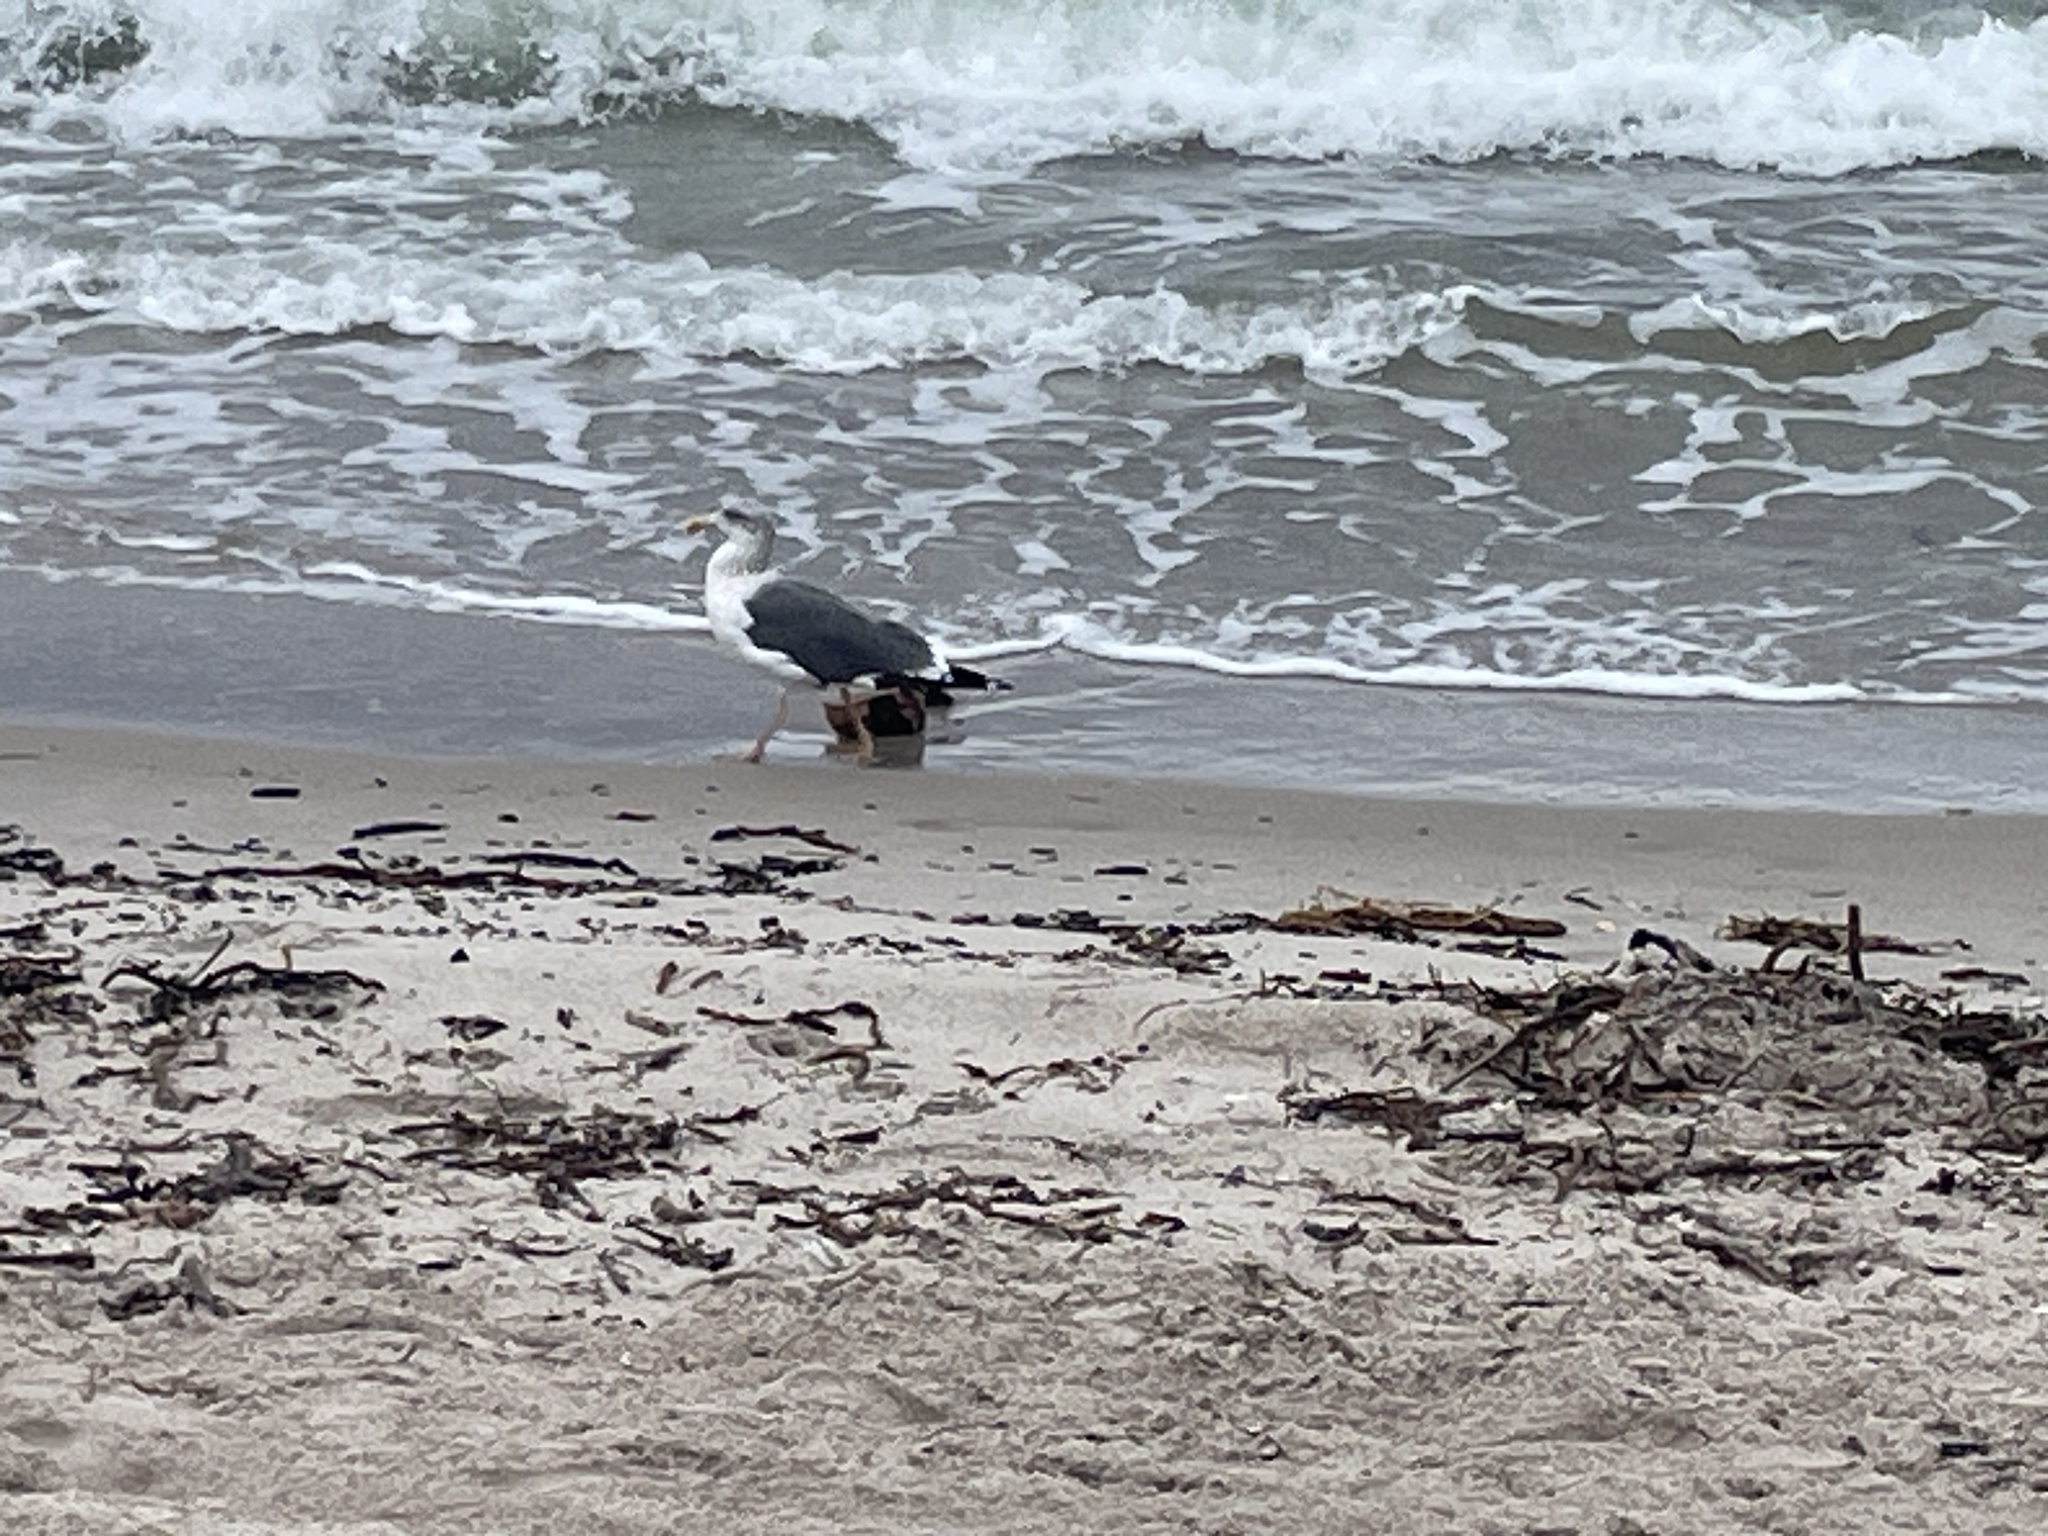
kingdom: Animalia
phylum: Chordata
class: Aves
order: Charadriiformes
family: Laridae
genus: Larus
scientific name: Larus fuscus
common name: Lesser black-backed gull
